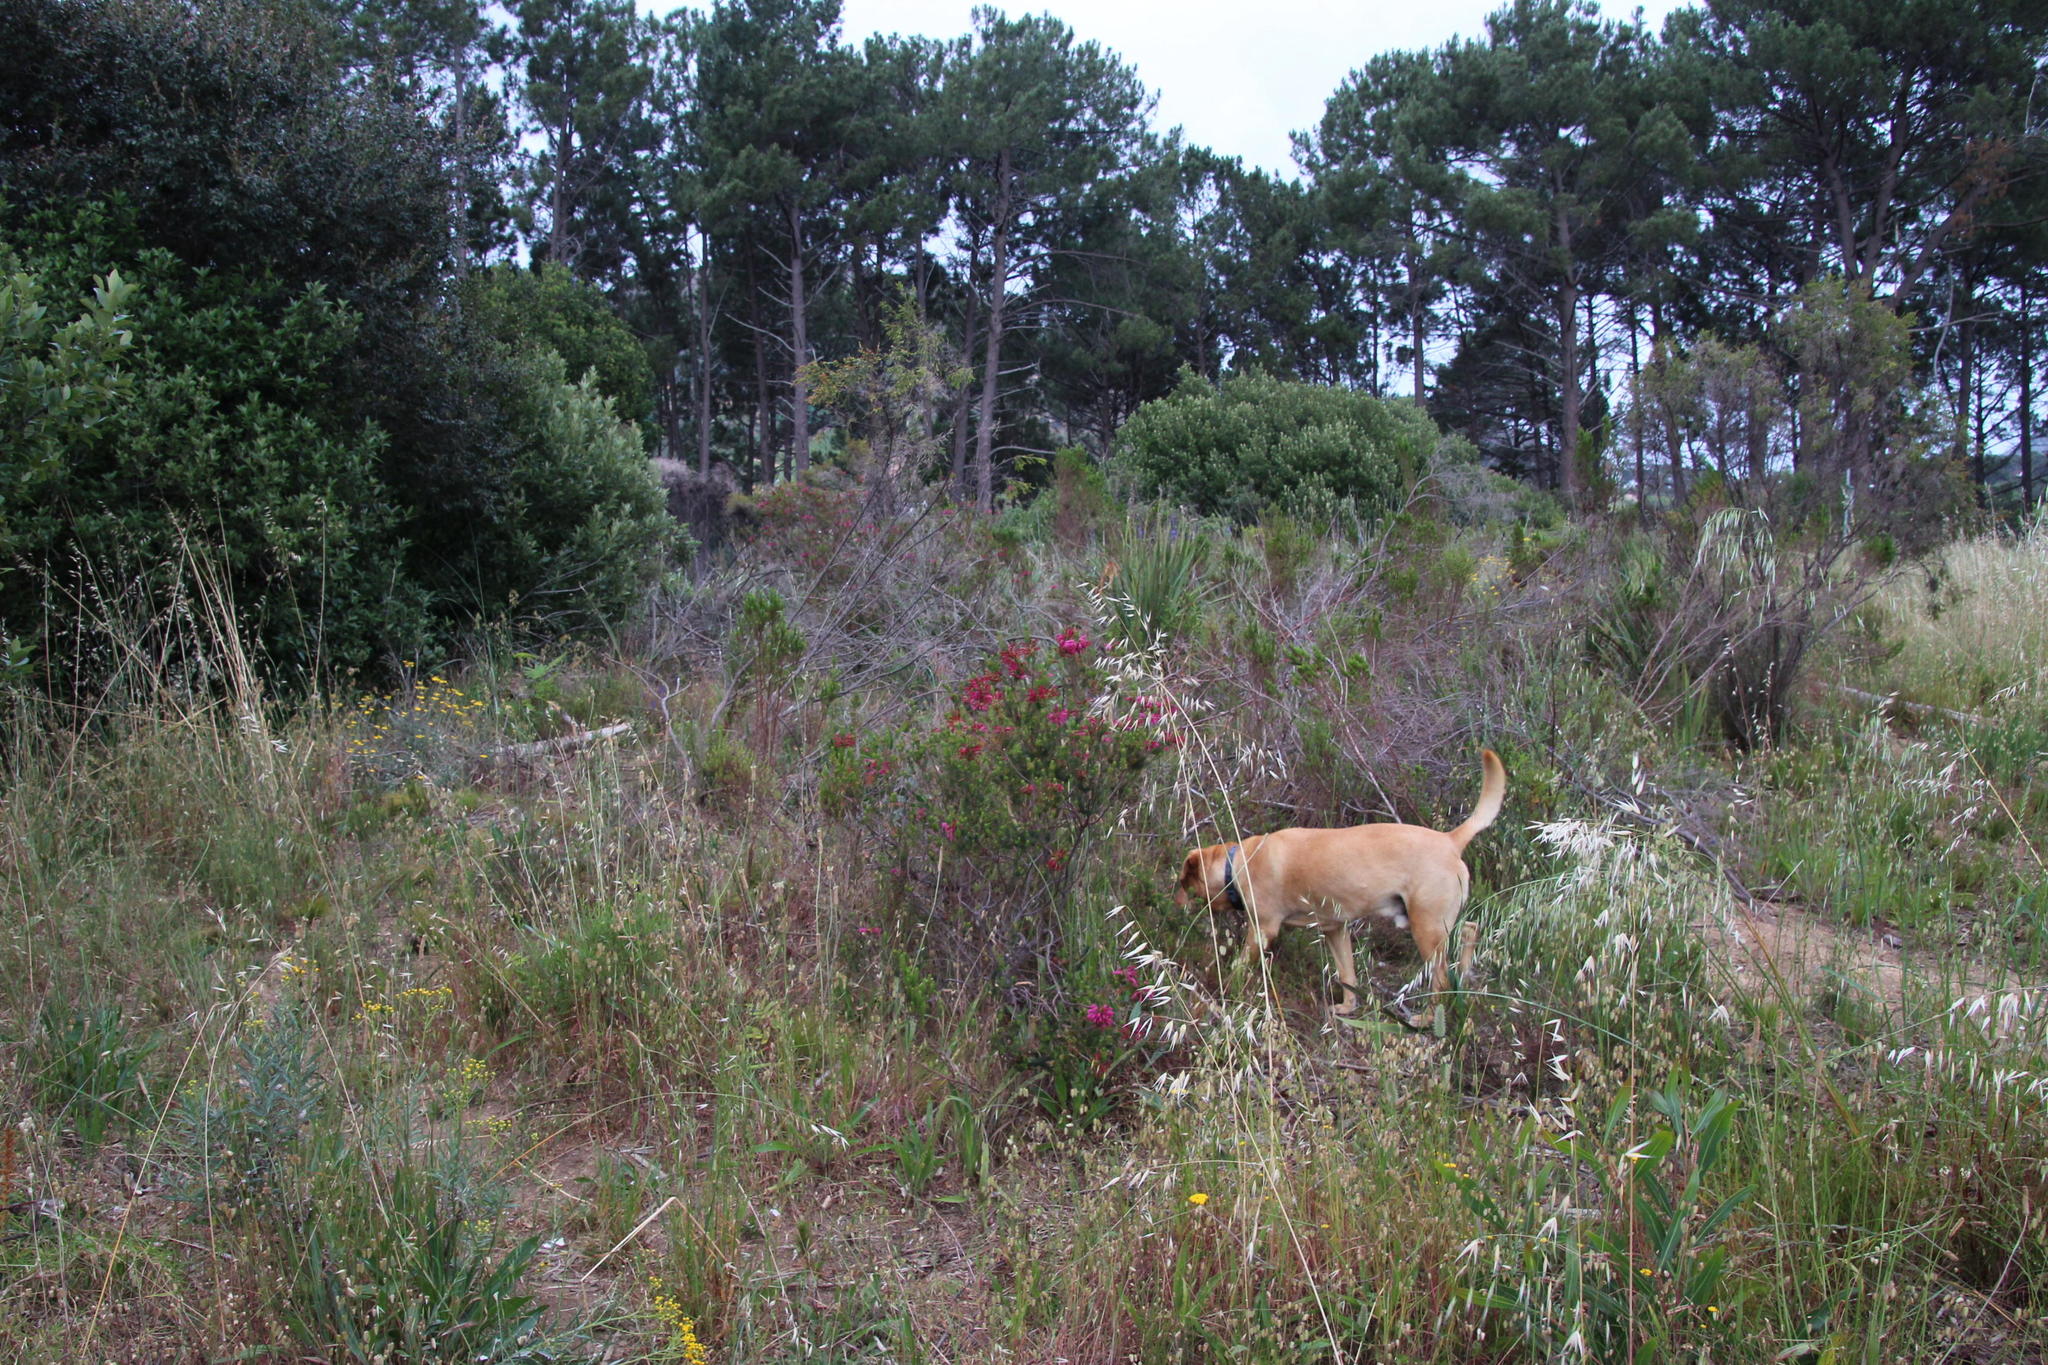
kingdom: Plantae
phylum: Tracheophyta
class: Magnoliopsida
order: Ericales
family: Ericaceae
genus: Erica
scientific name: Erica abietina
